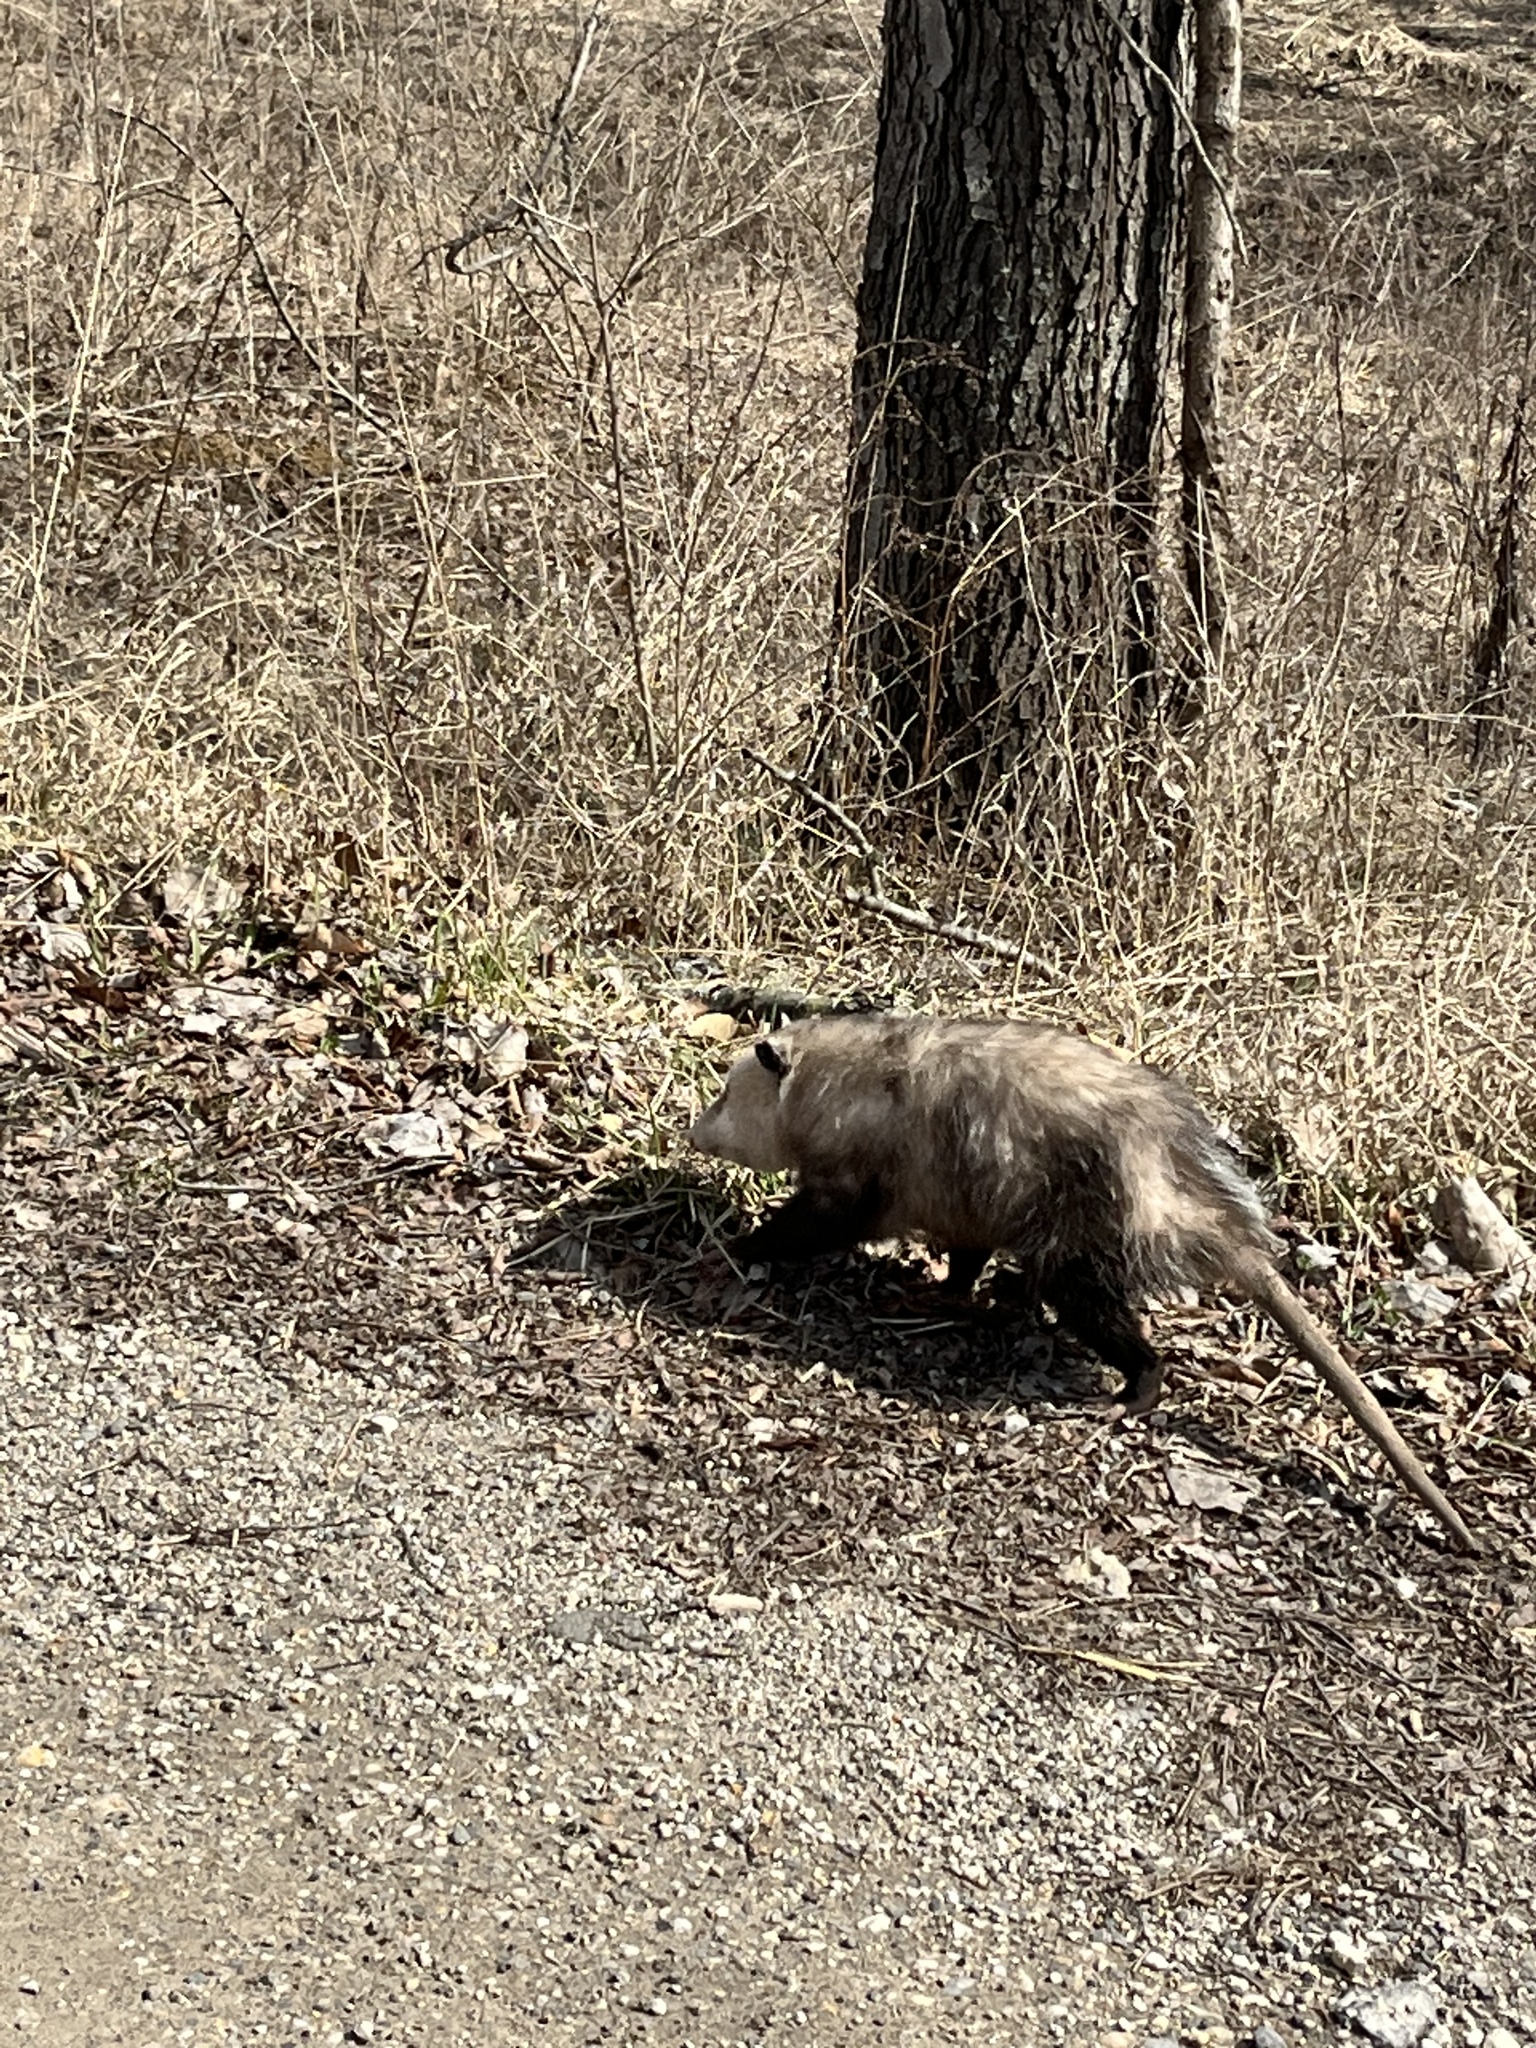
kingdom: Animalia
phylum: Chordata
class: Mammalia
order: Didelphimorphia
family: Didelphidae
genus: Didelphis
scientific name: Didelphis virginiana
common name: Virginia opossum
